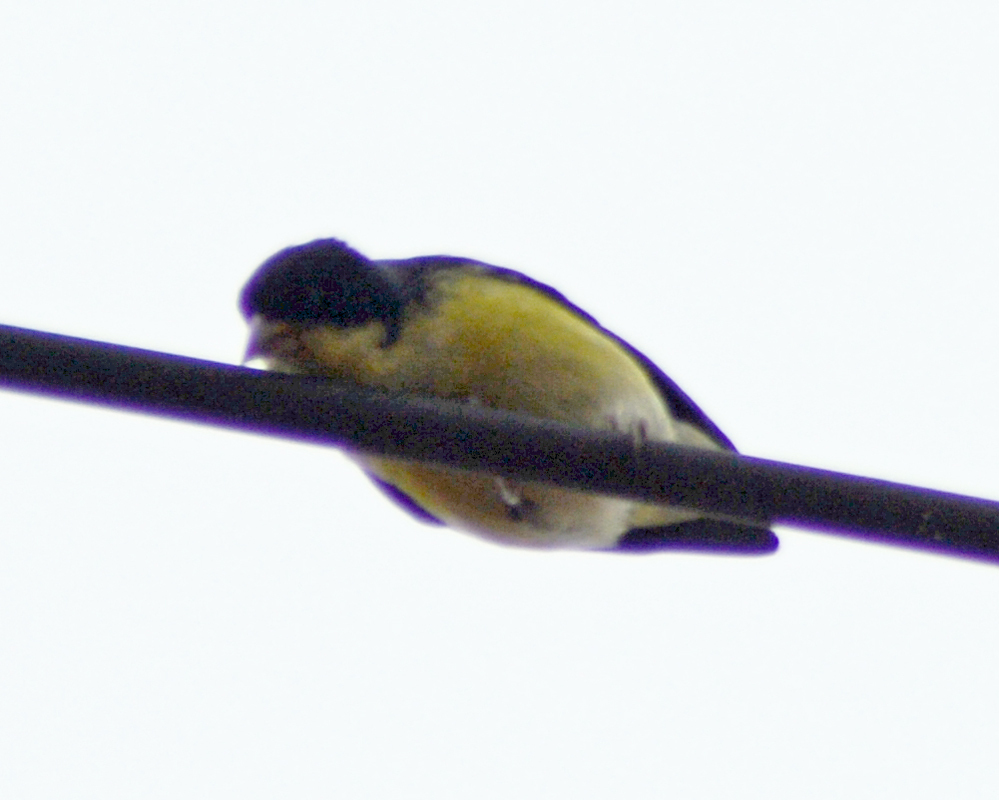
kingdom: Animalia
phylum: Chordata
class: Aves
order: Passeriformes
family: Fringillidae
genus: Spinus
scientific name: Spinus psaltria
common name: Lesser goldfinch
